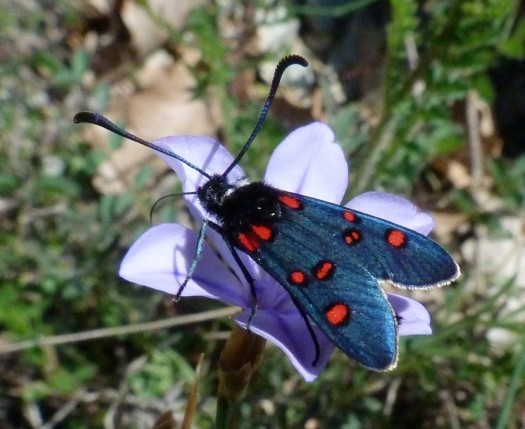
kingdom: Animalia
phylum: Arthropoda
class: Insecta
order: Lepidoptera
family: Zygaenidae
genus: Zygaena
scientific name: Zygaena lavandulae
